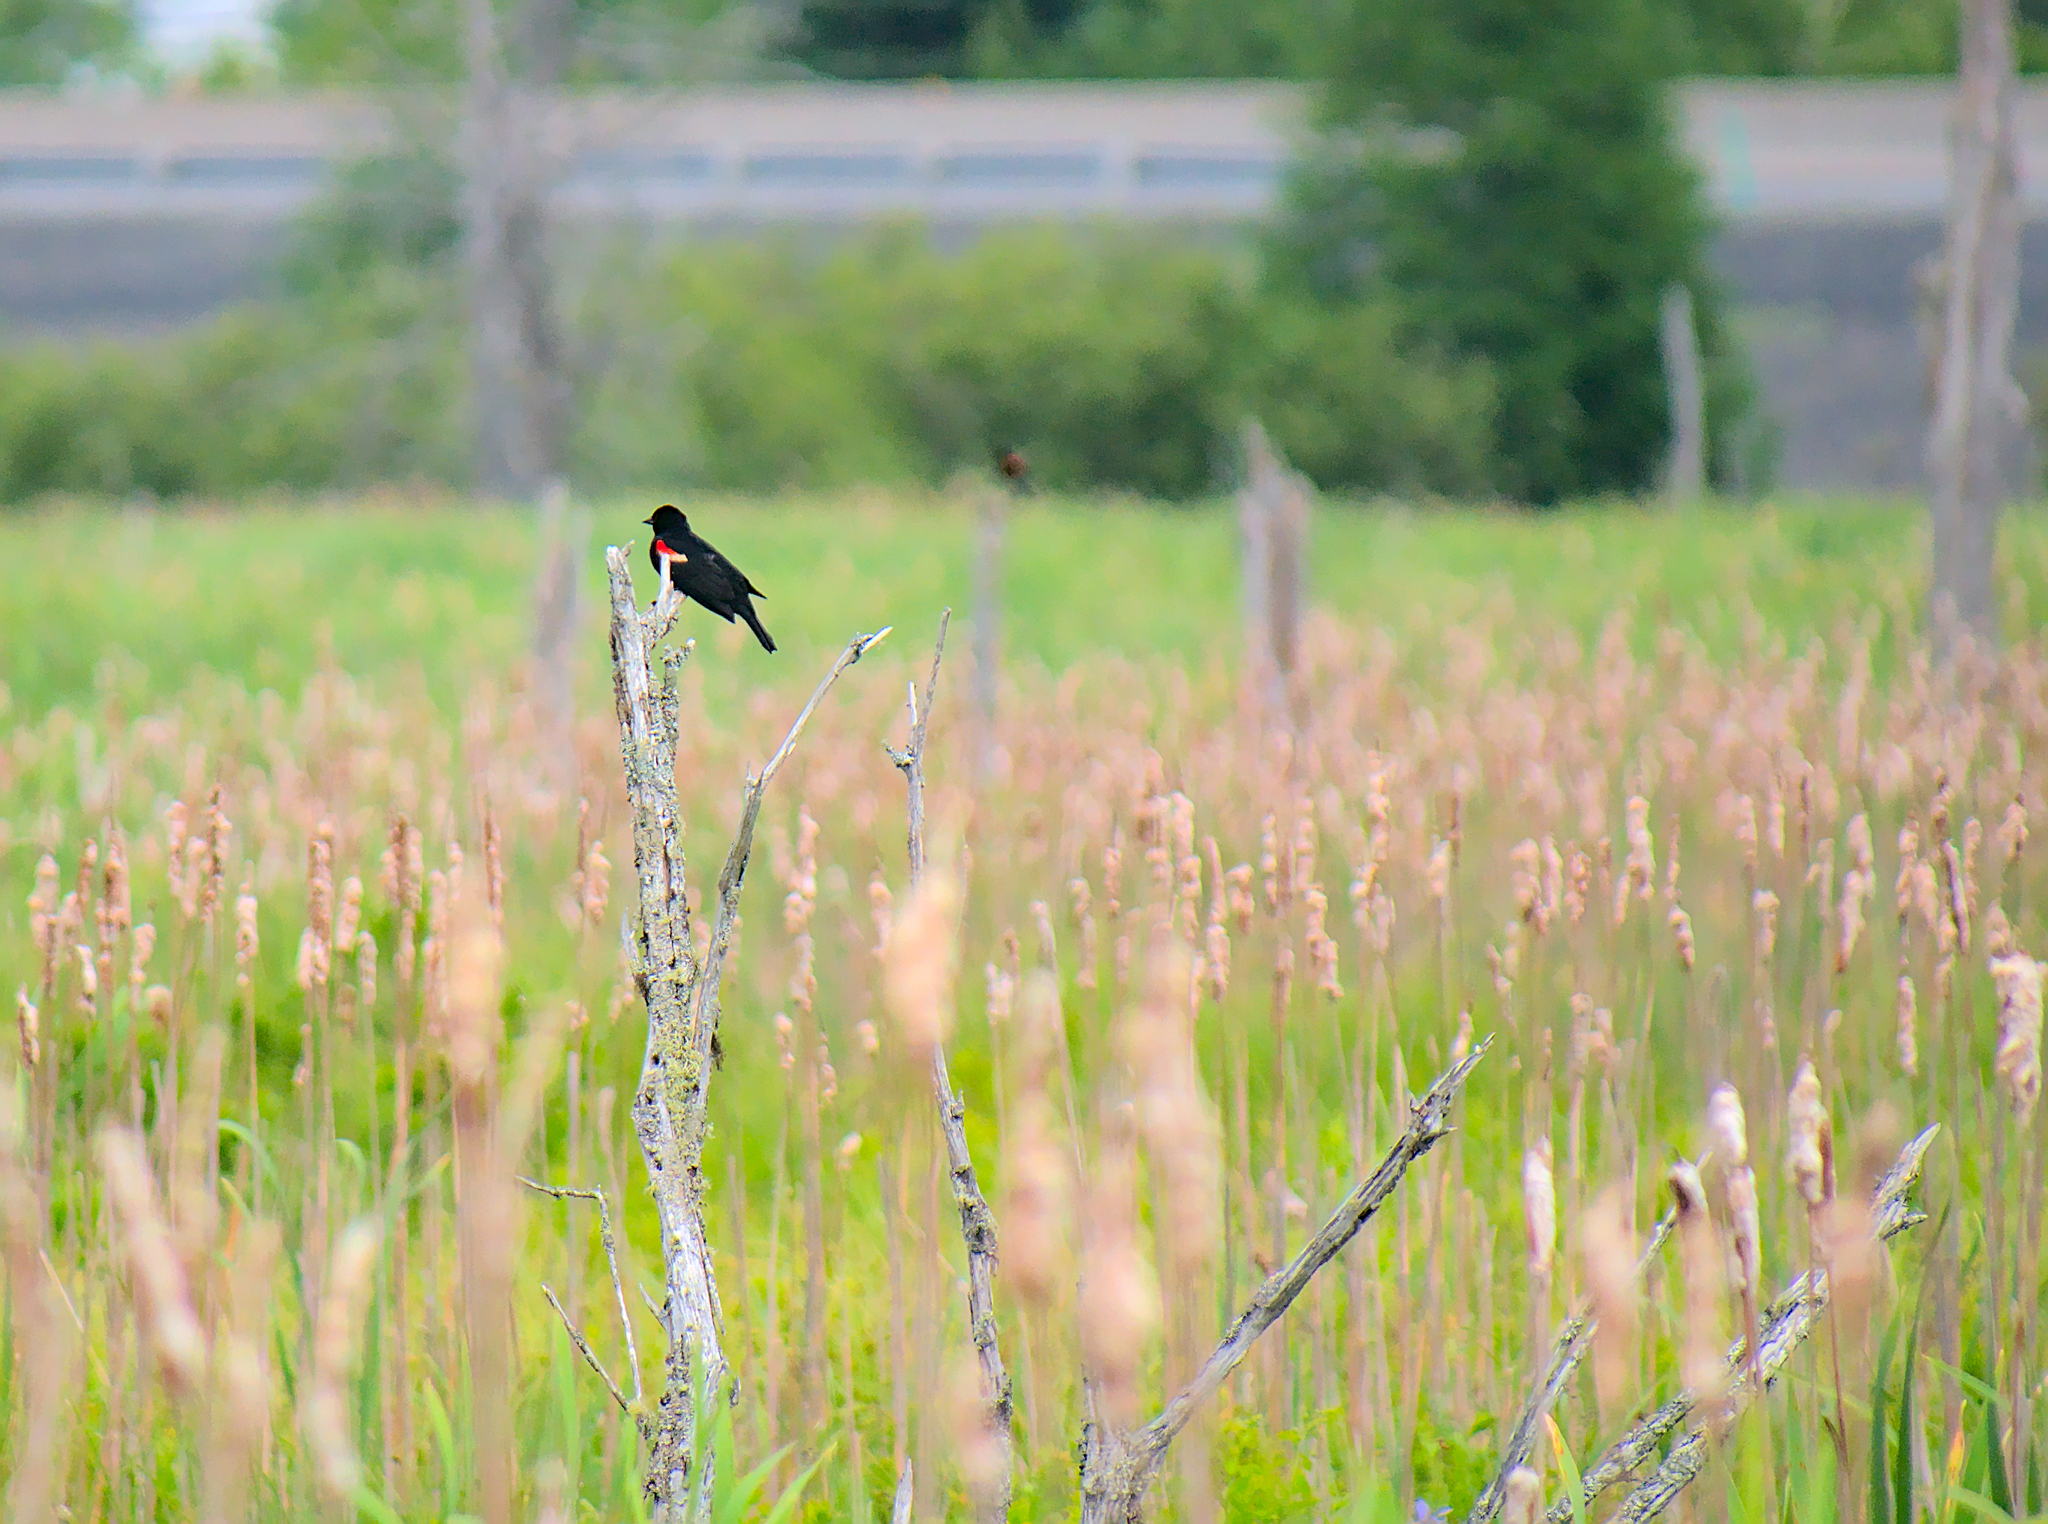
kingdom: Animalia
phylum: Chordata
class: Aves
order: Passeriformes
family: Icteridae
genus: Agelaius
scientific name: Agelaius phoeniceus
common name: Red-winged blackbird
